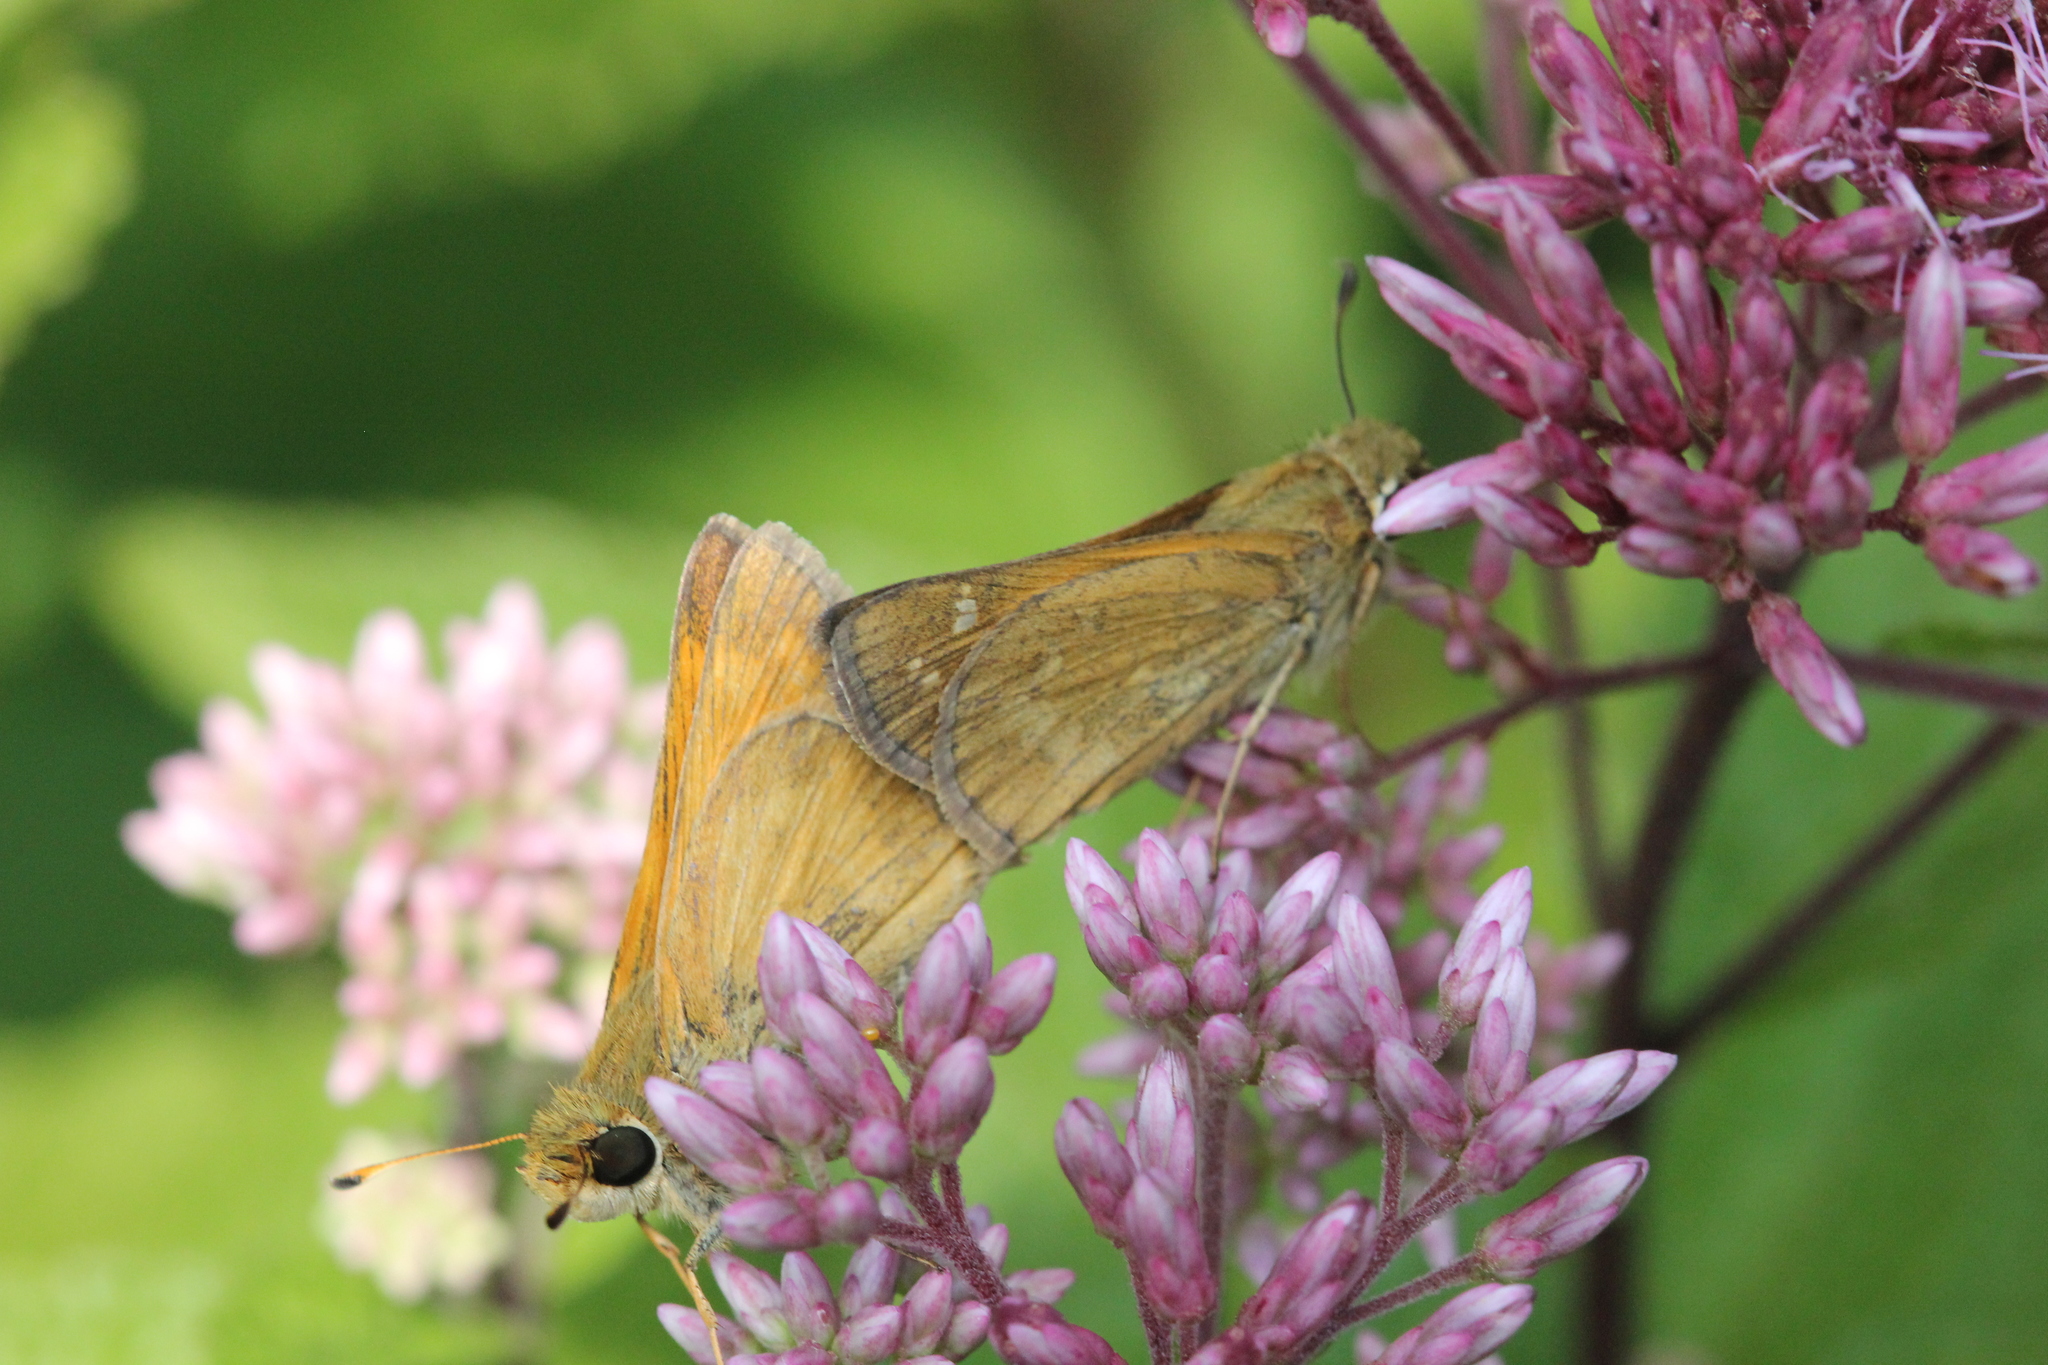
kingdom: Animalia
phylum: Arthropoda
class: Insecta
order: Lepidoptera
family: Hesperiidae
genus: Atalopedes
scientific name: Atalopedes
